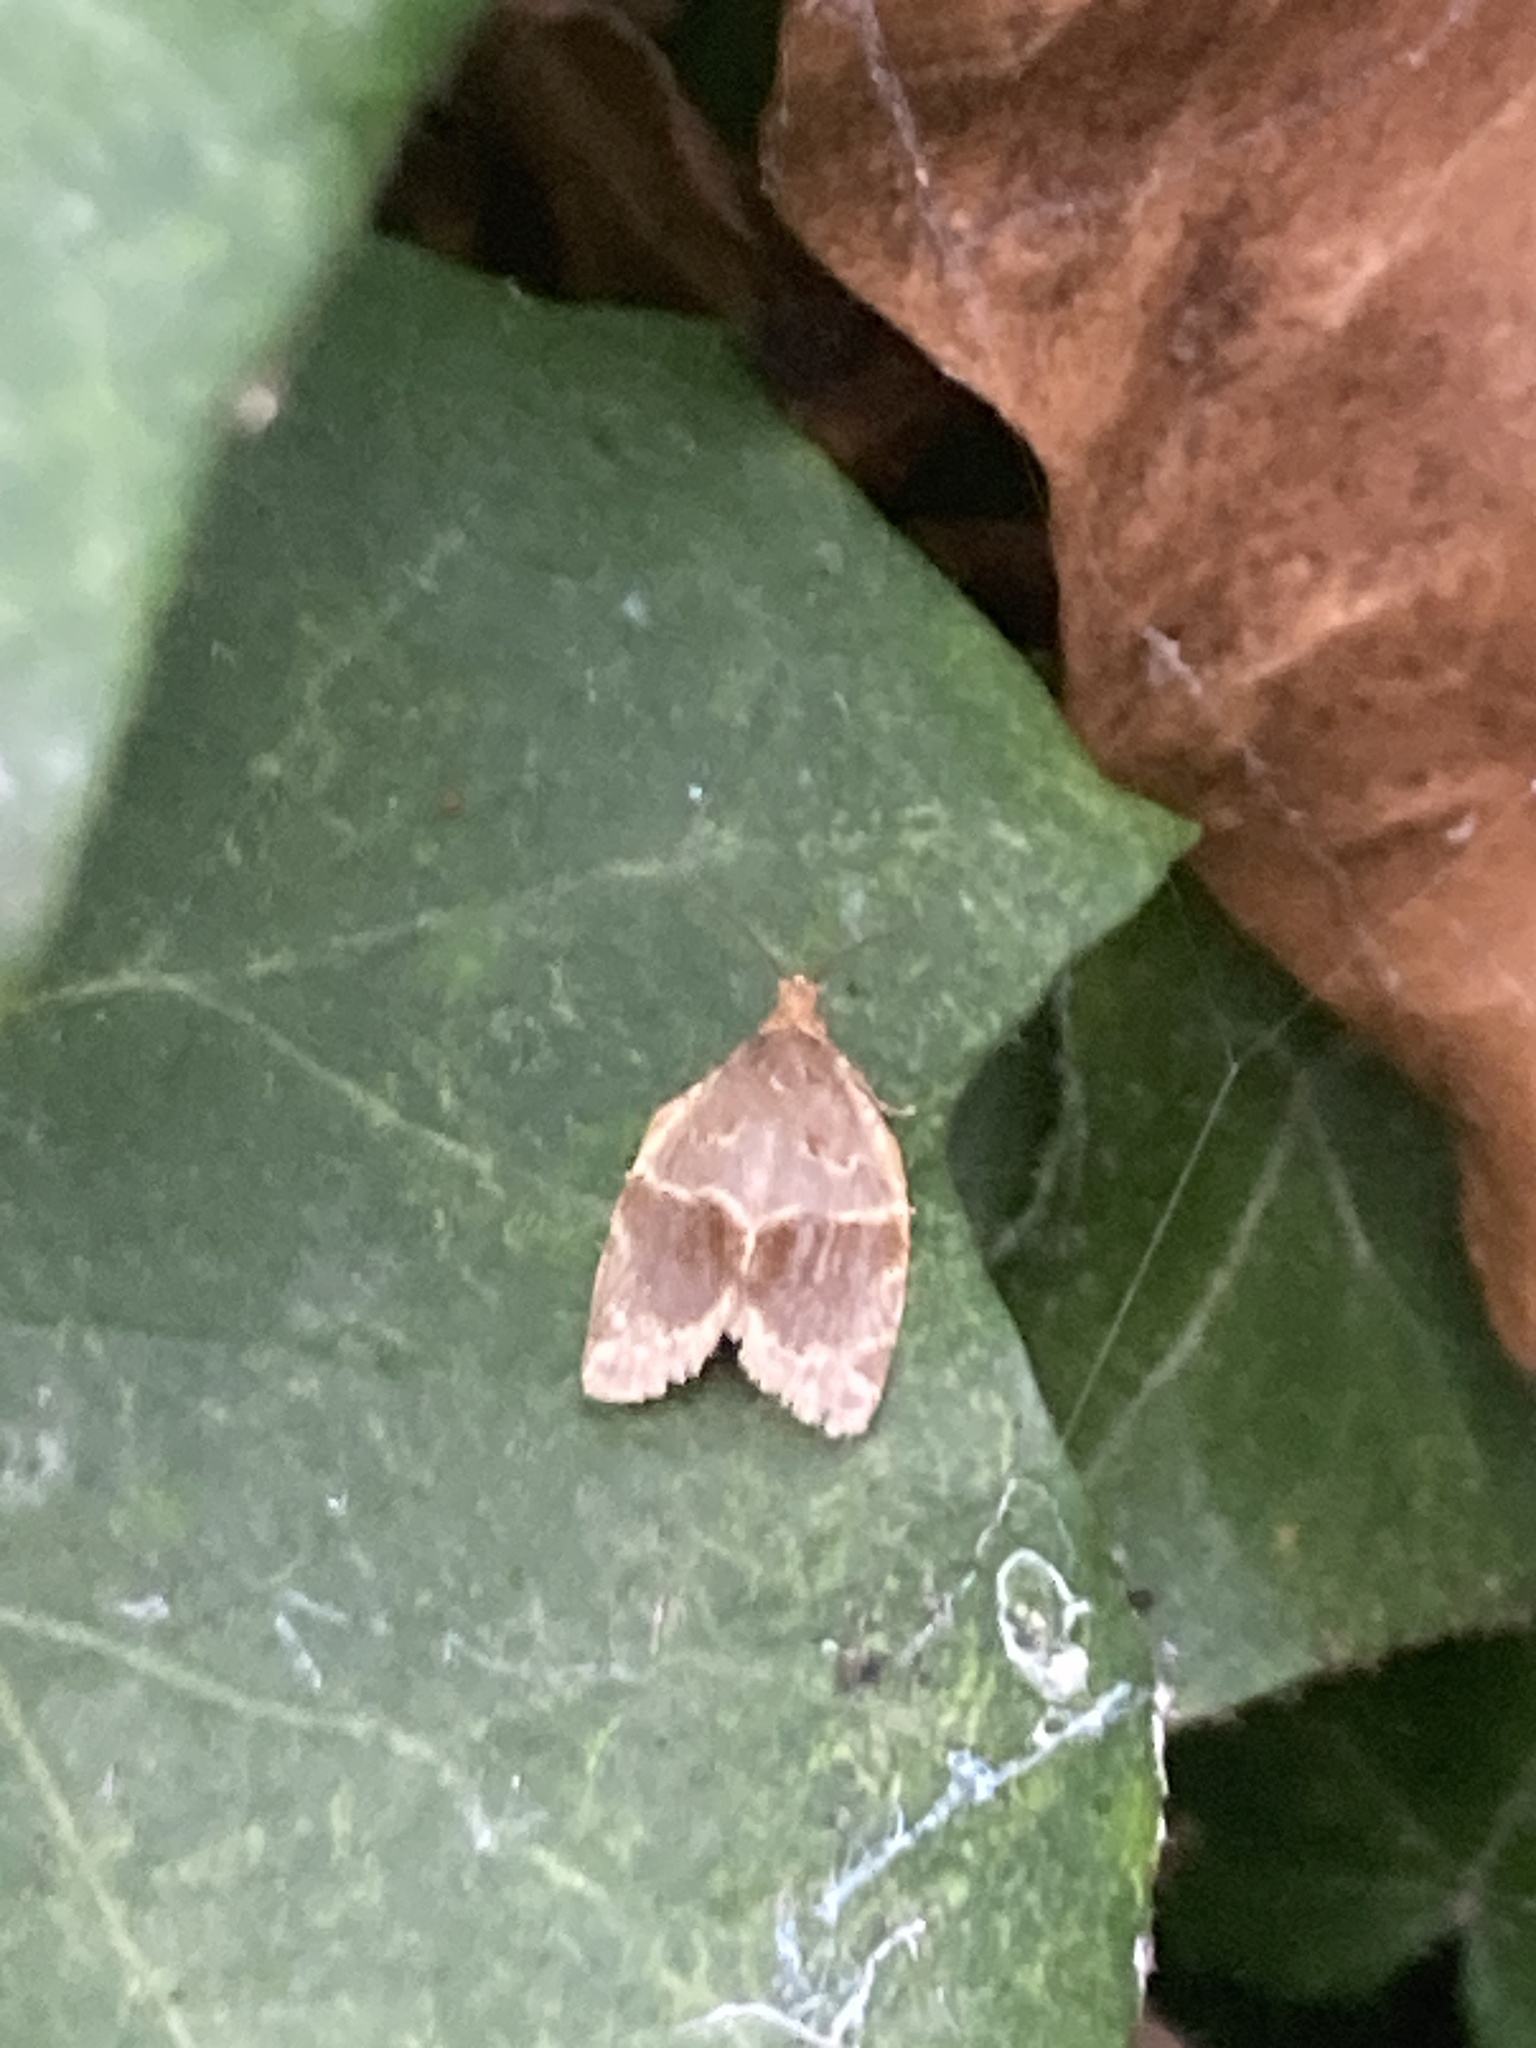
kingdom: Animalia
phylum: Arthropoda
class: Insecta
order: Lepidoptera
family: Tortricidae
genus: Clepsis
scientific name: Clepsis dumicolana
